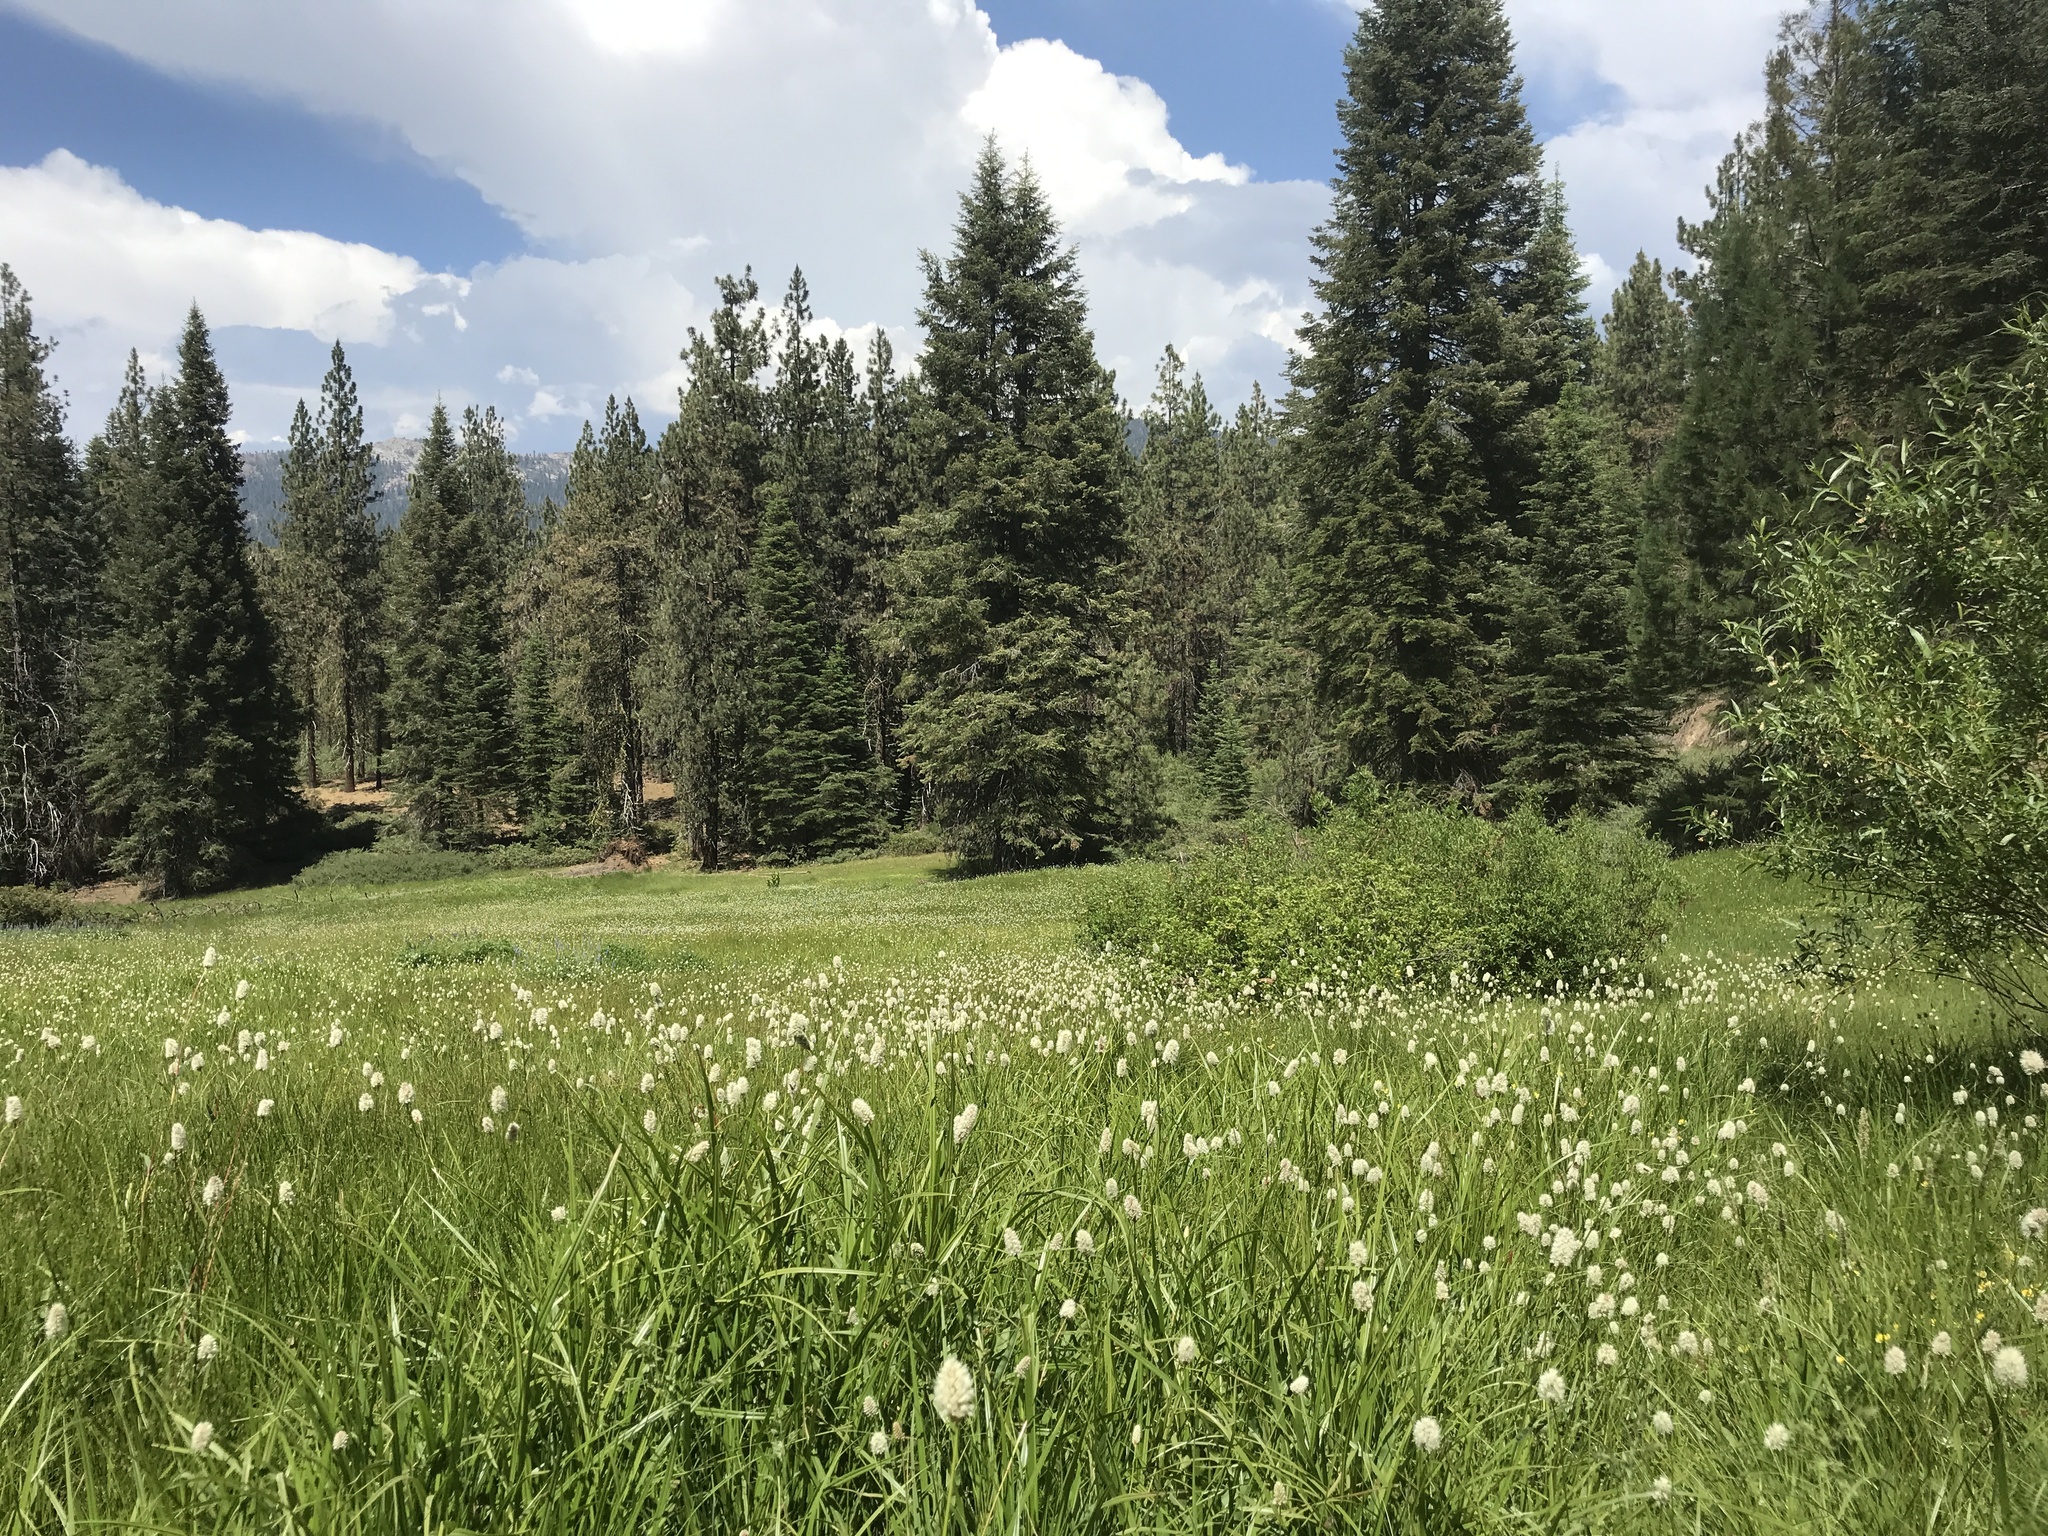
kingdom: Plantae
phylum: Tracheophyta
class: Pinopsida
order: Pinales
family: Pinaceae
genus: Abies
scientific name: Abies concolor
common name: Colorado fir
